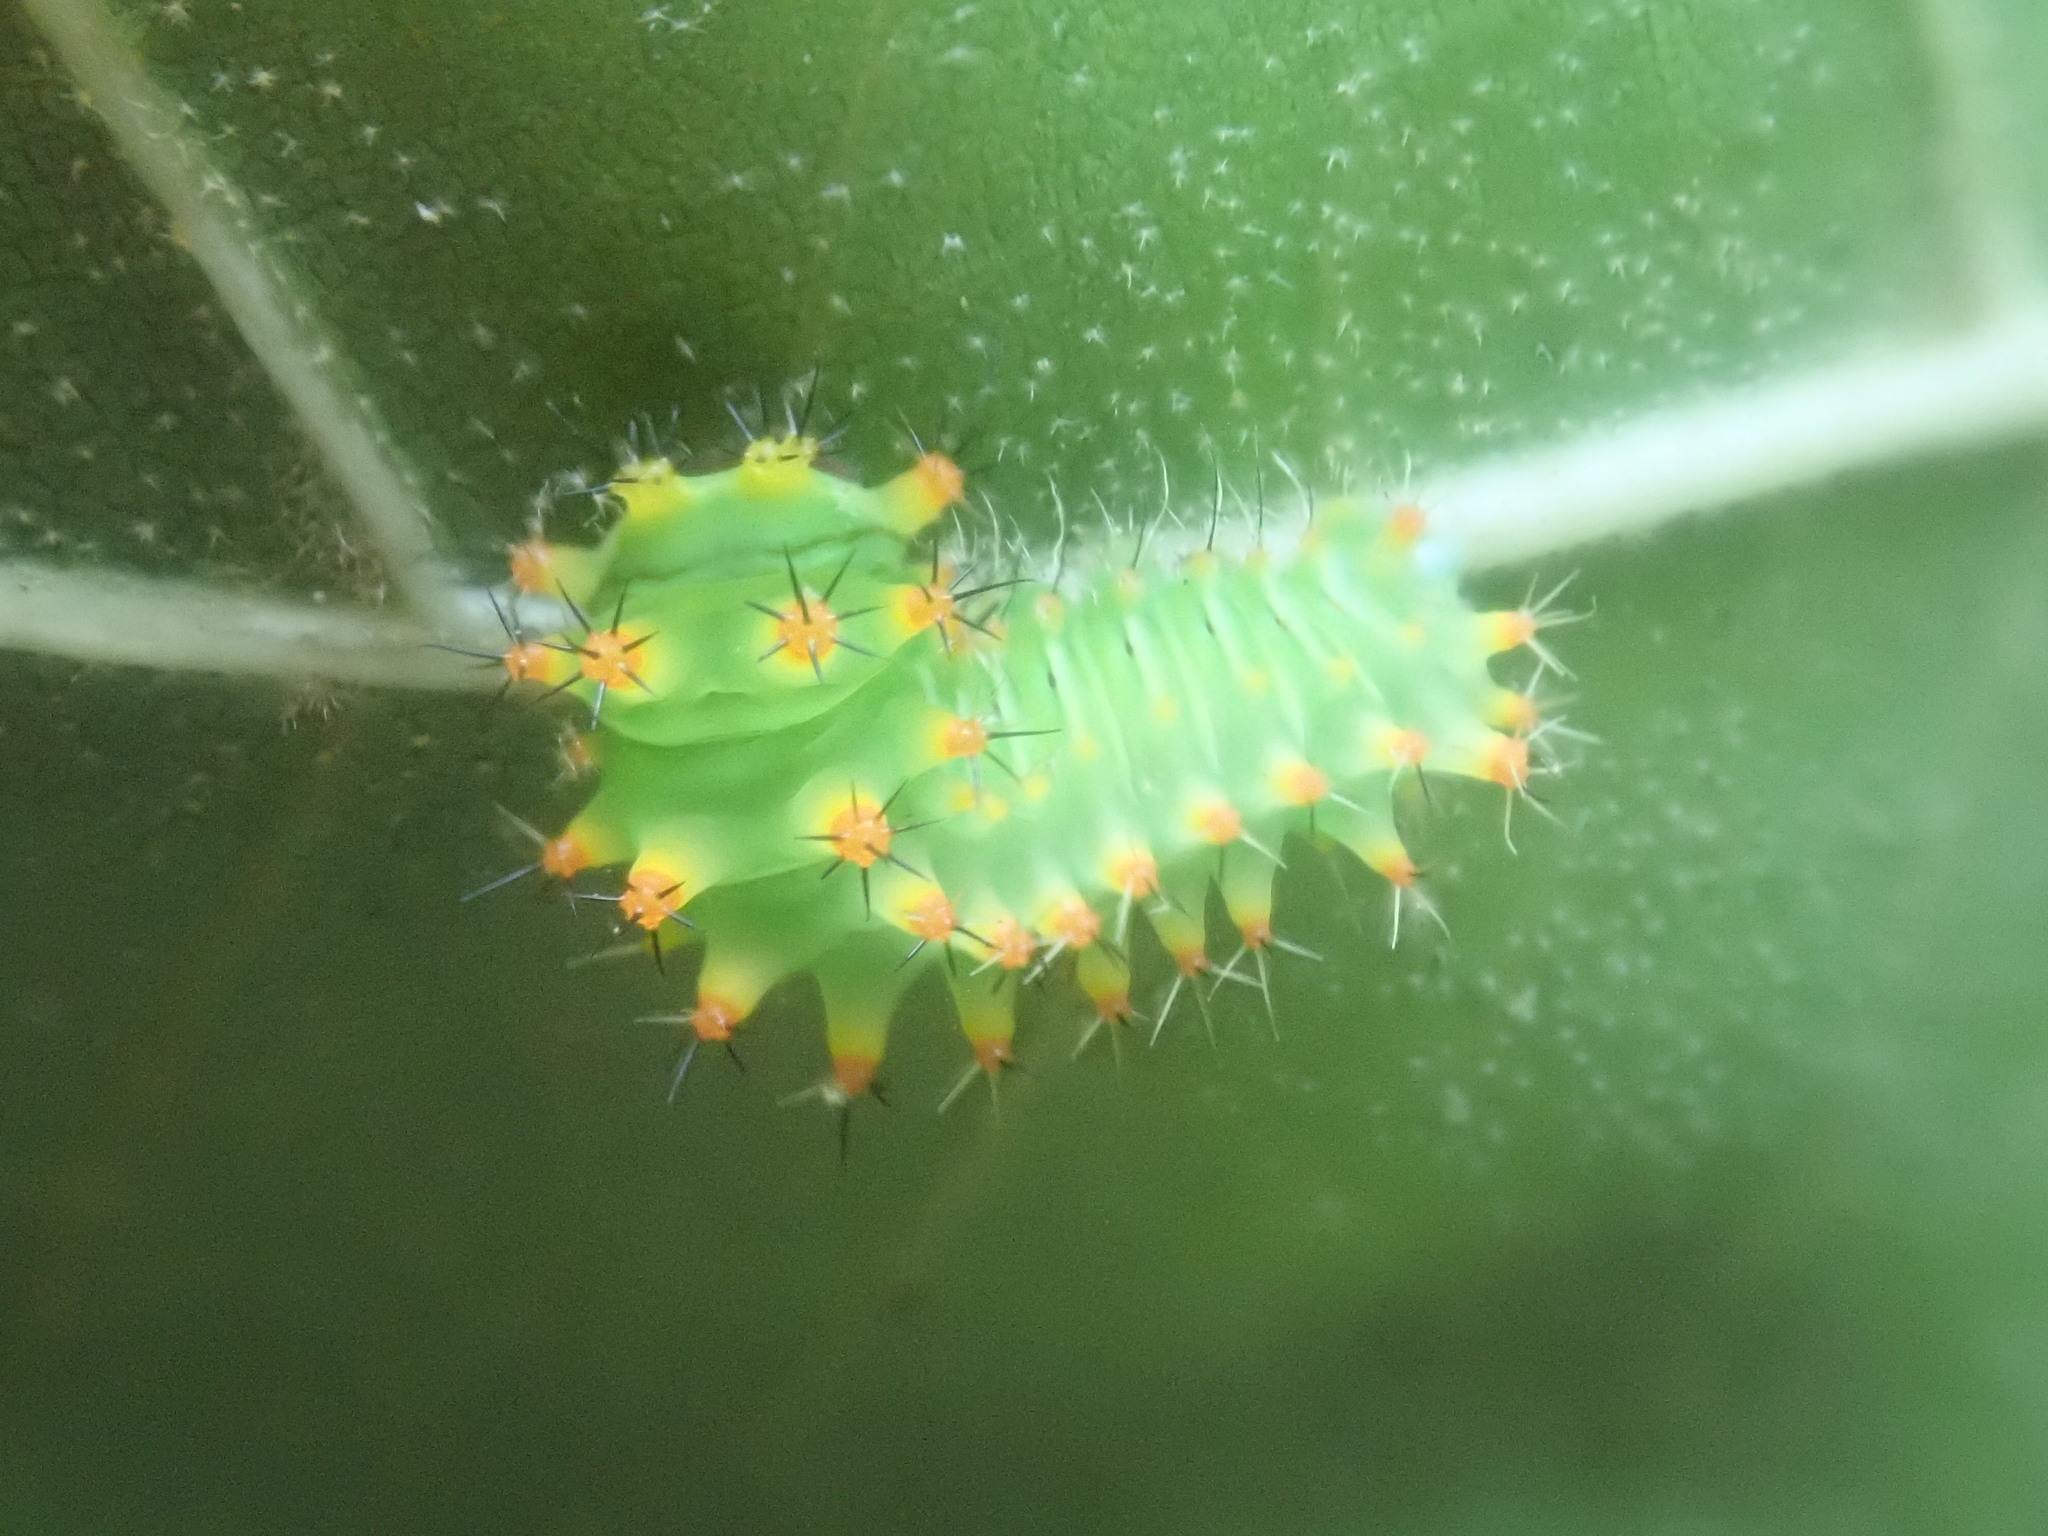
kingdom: Animalia
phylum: Arthropoda
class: Insecta
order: Lepidoptera
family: Saturniidae
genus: Antheraea
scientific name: Antheraea polyphemus
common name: Polyphemus moth
